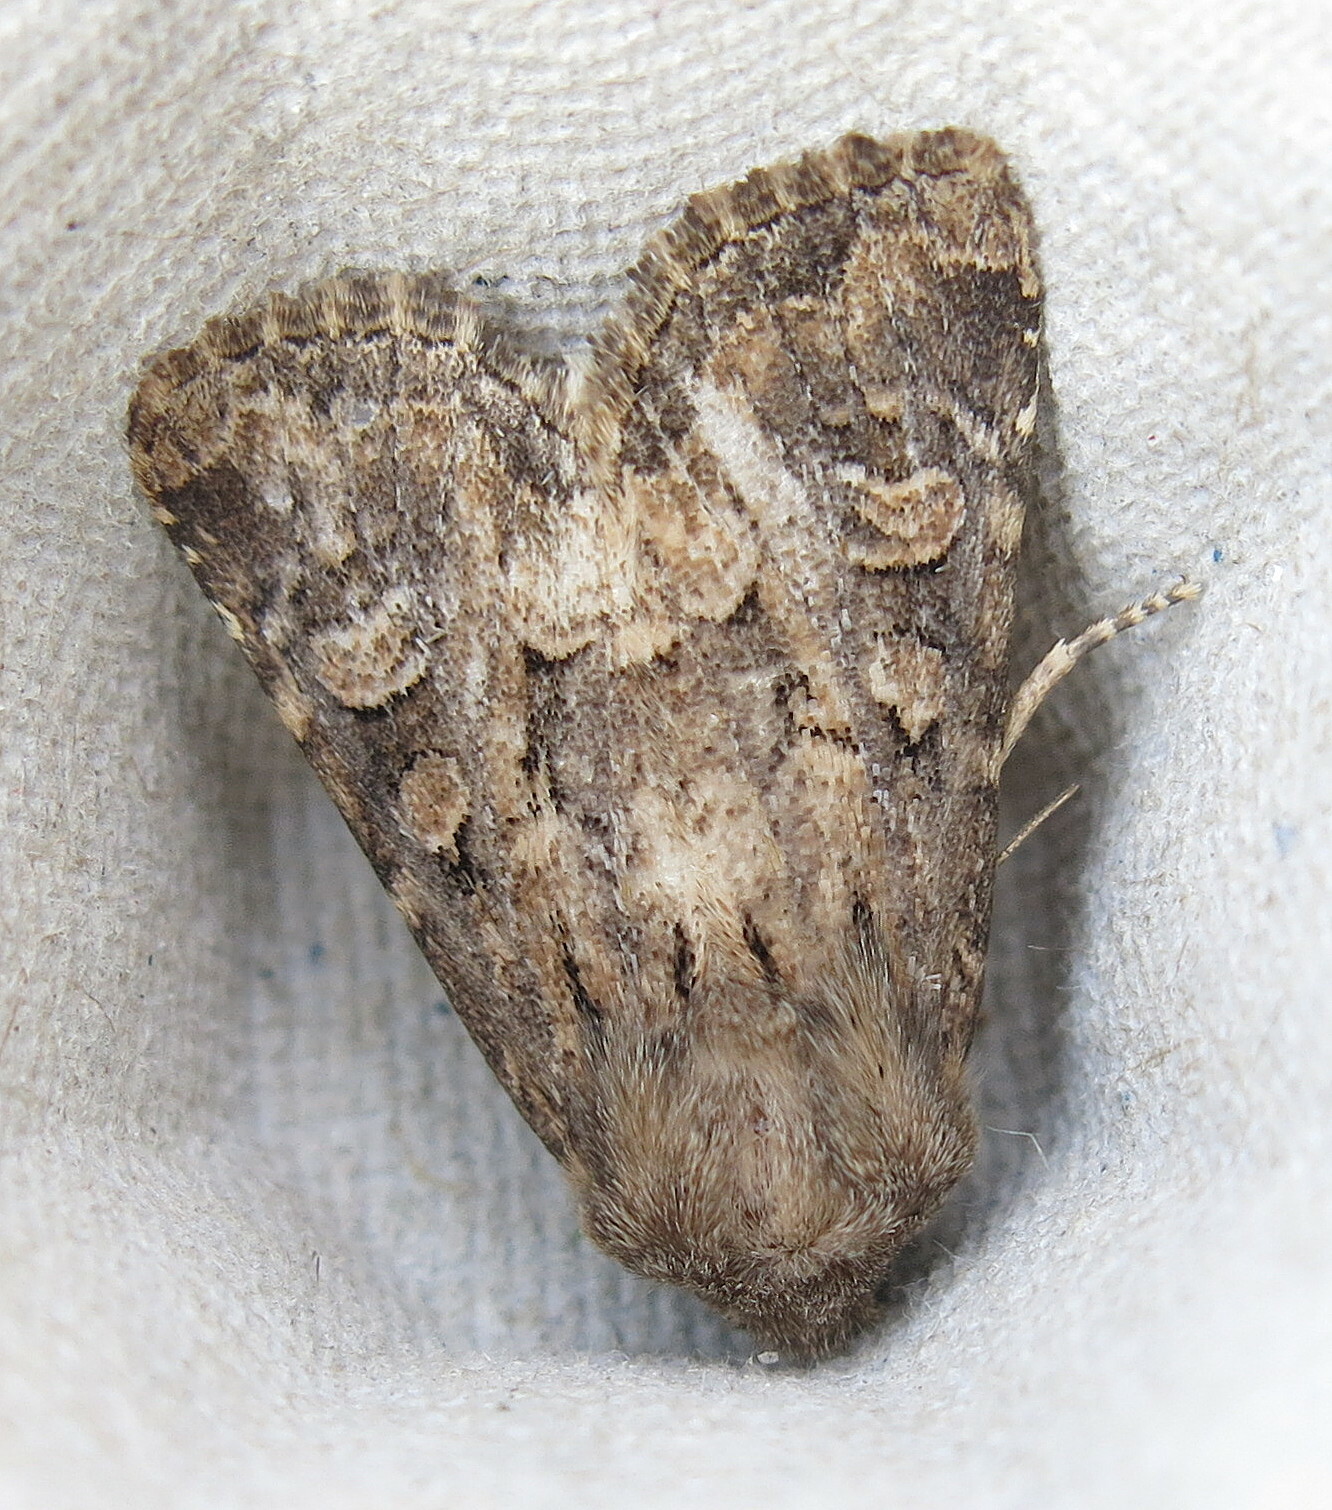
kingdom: Animalia
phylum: Arthropoda
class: Insecta
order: Lepidoptera
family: Noctuidae
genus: Luperina
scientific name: Luperina testacea
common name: Flounced rustic
